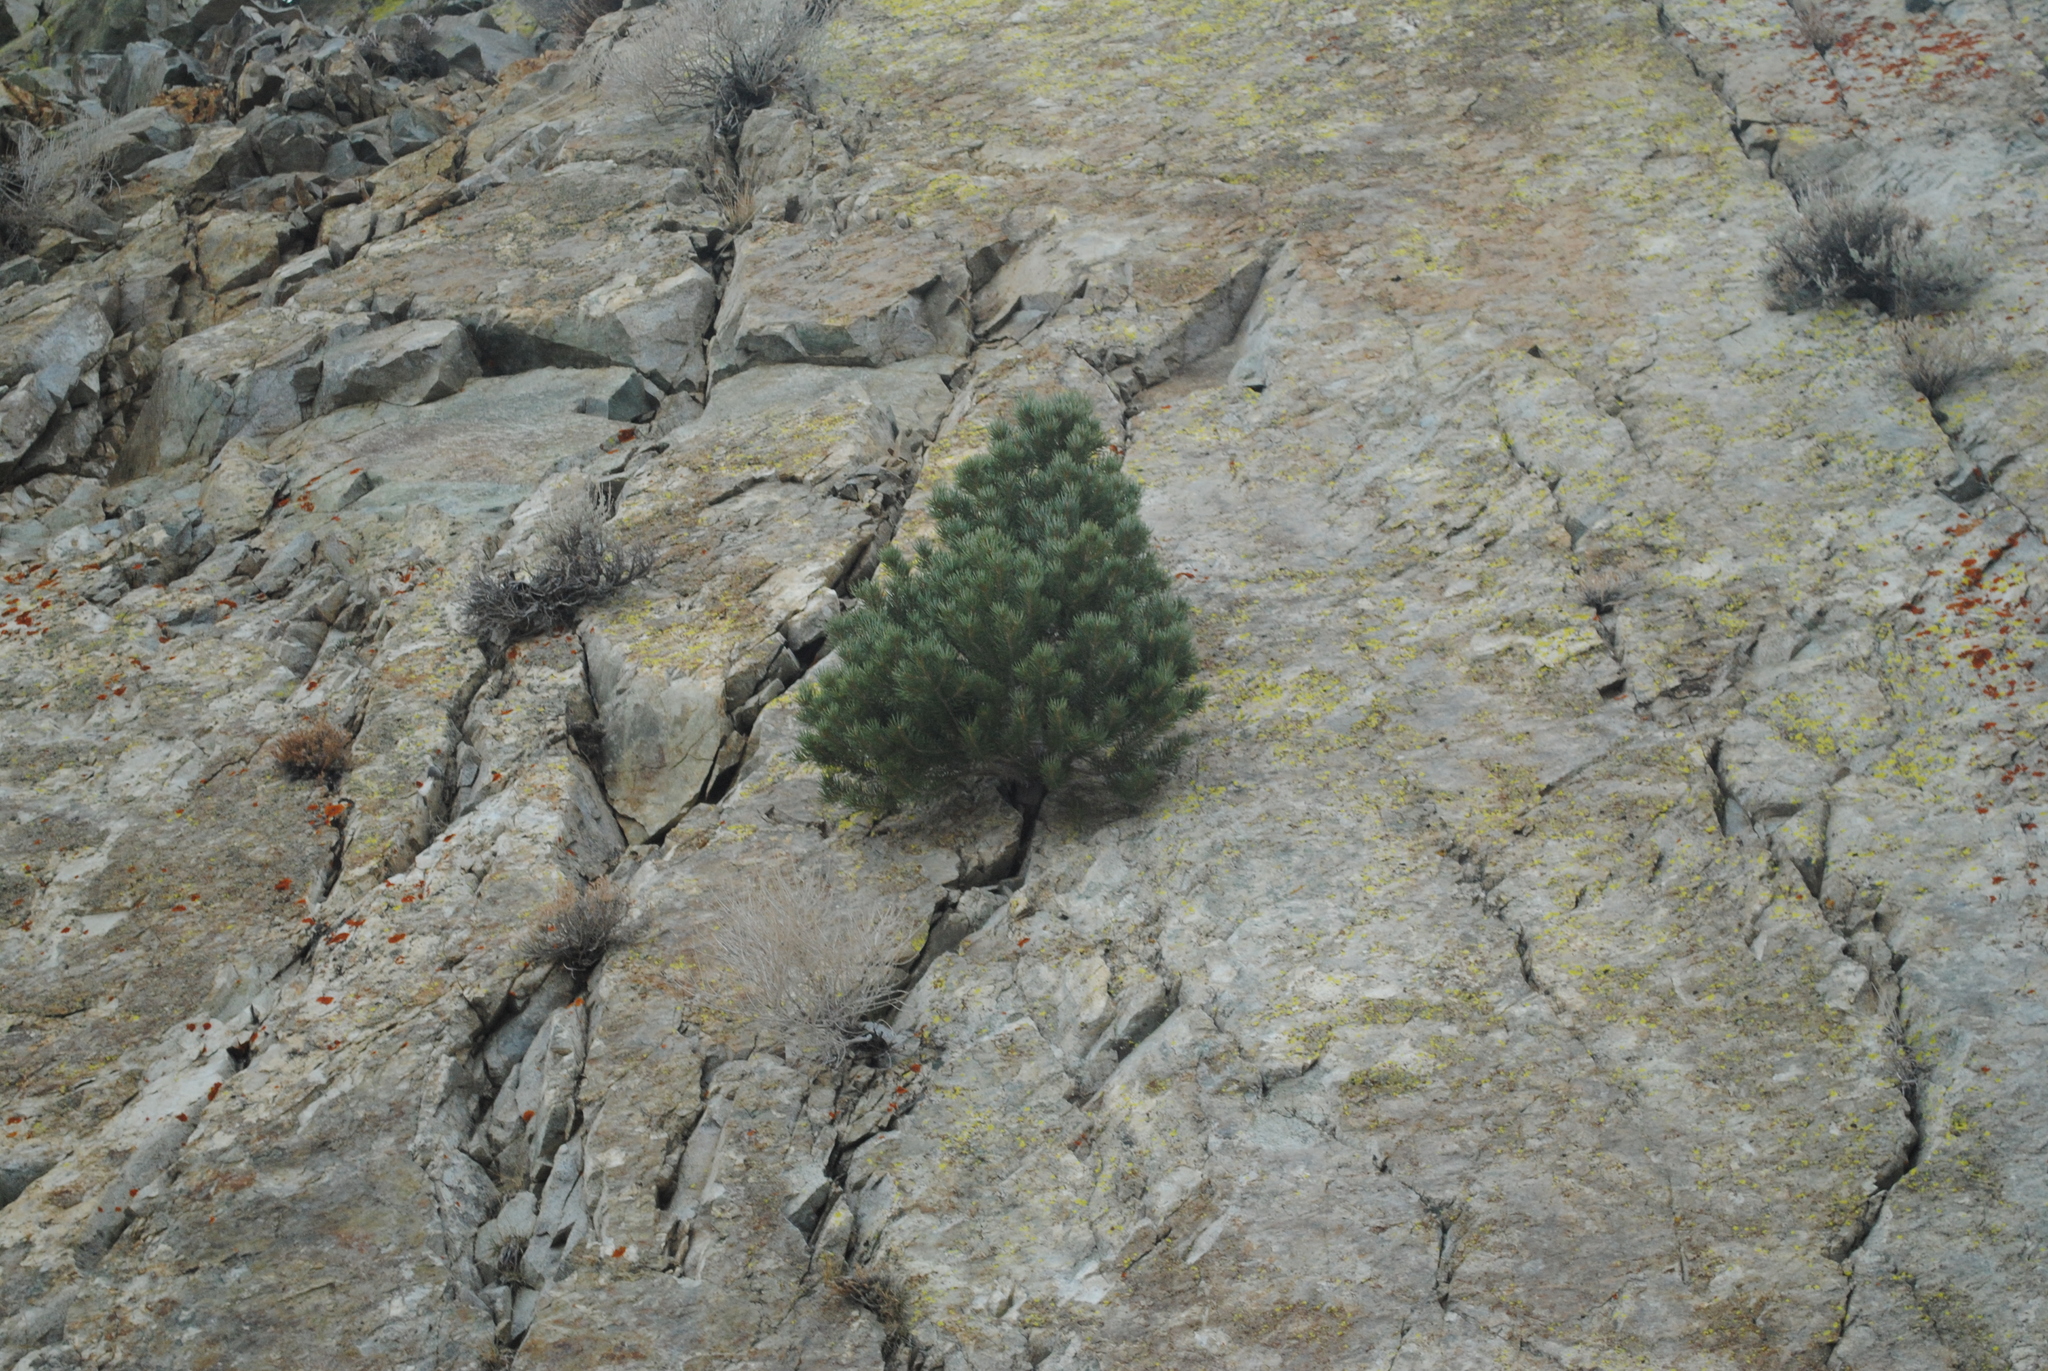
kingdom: Plantae
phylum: Tracheophyta
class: Pinopsida
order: Pinales
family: Pinaceae
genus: Pinus
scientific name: Pinus monophylla
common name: One-leaved nut pine
